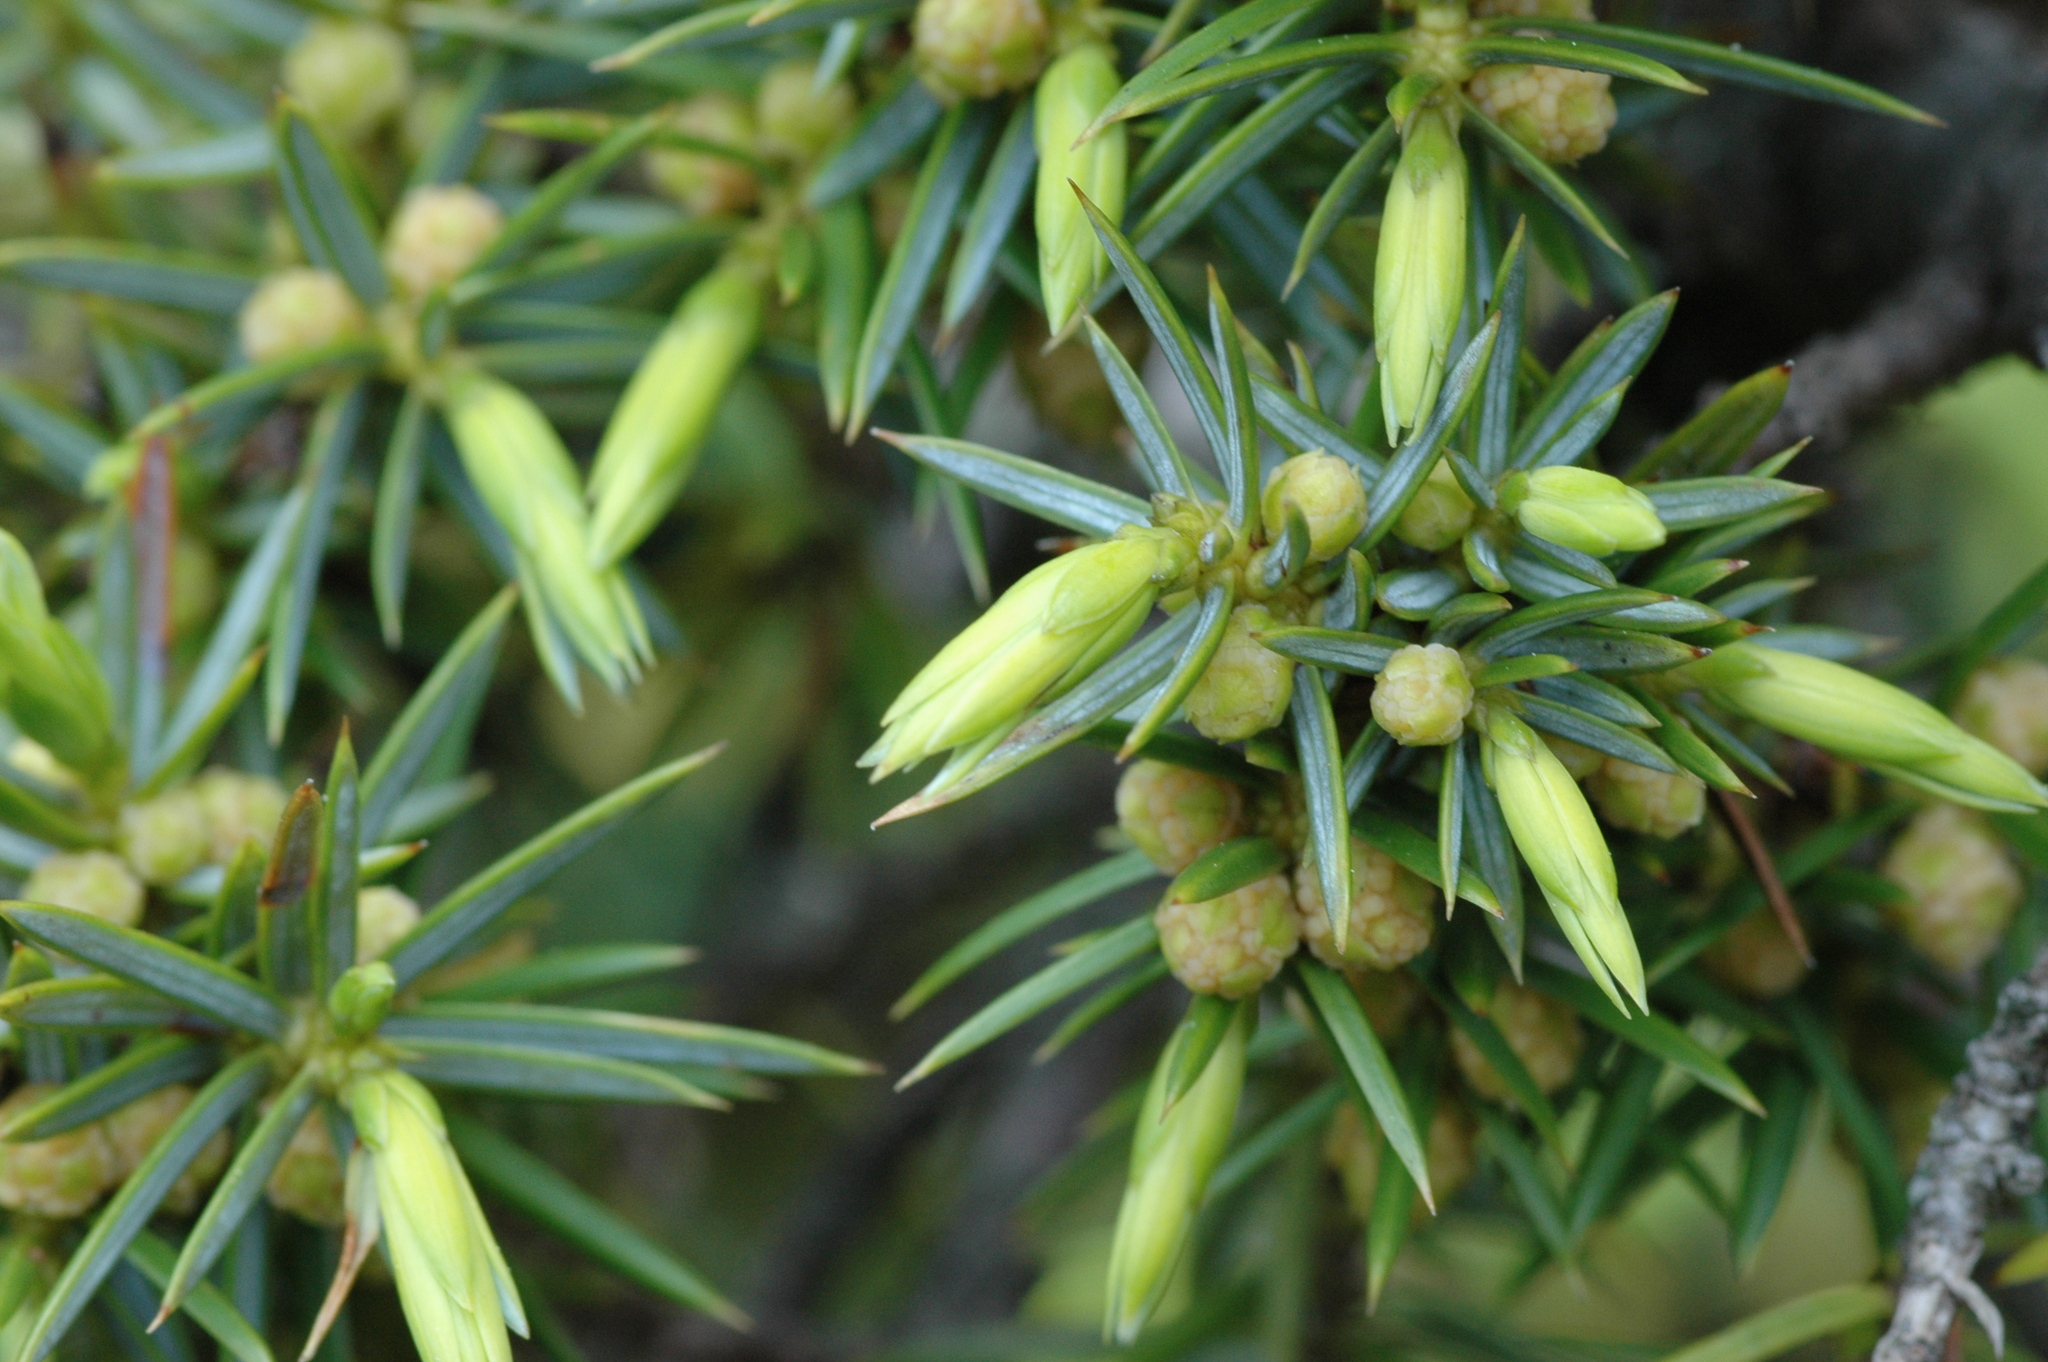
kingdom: Plantae
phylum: Tracheophyta
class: Pinopsida
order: Pinales
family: Cupressaceae
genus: Juniperus
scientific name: Juniperus formosana
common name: Formosan juniper
